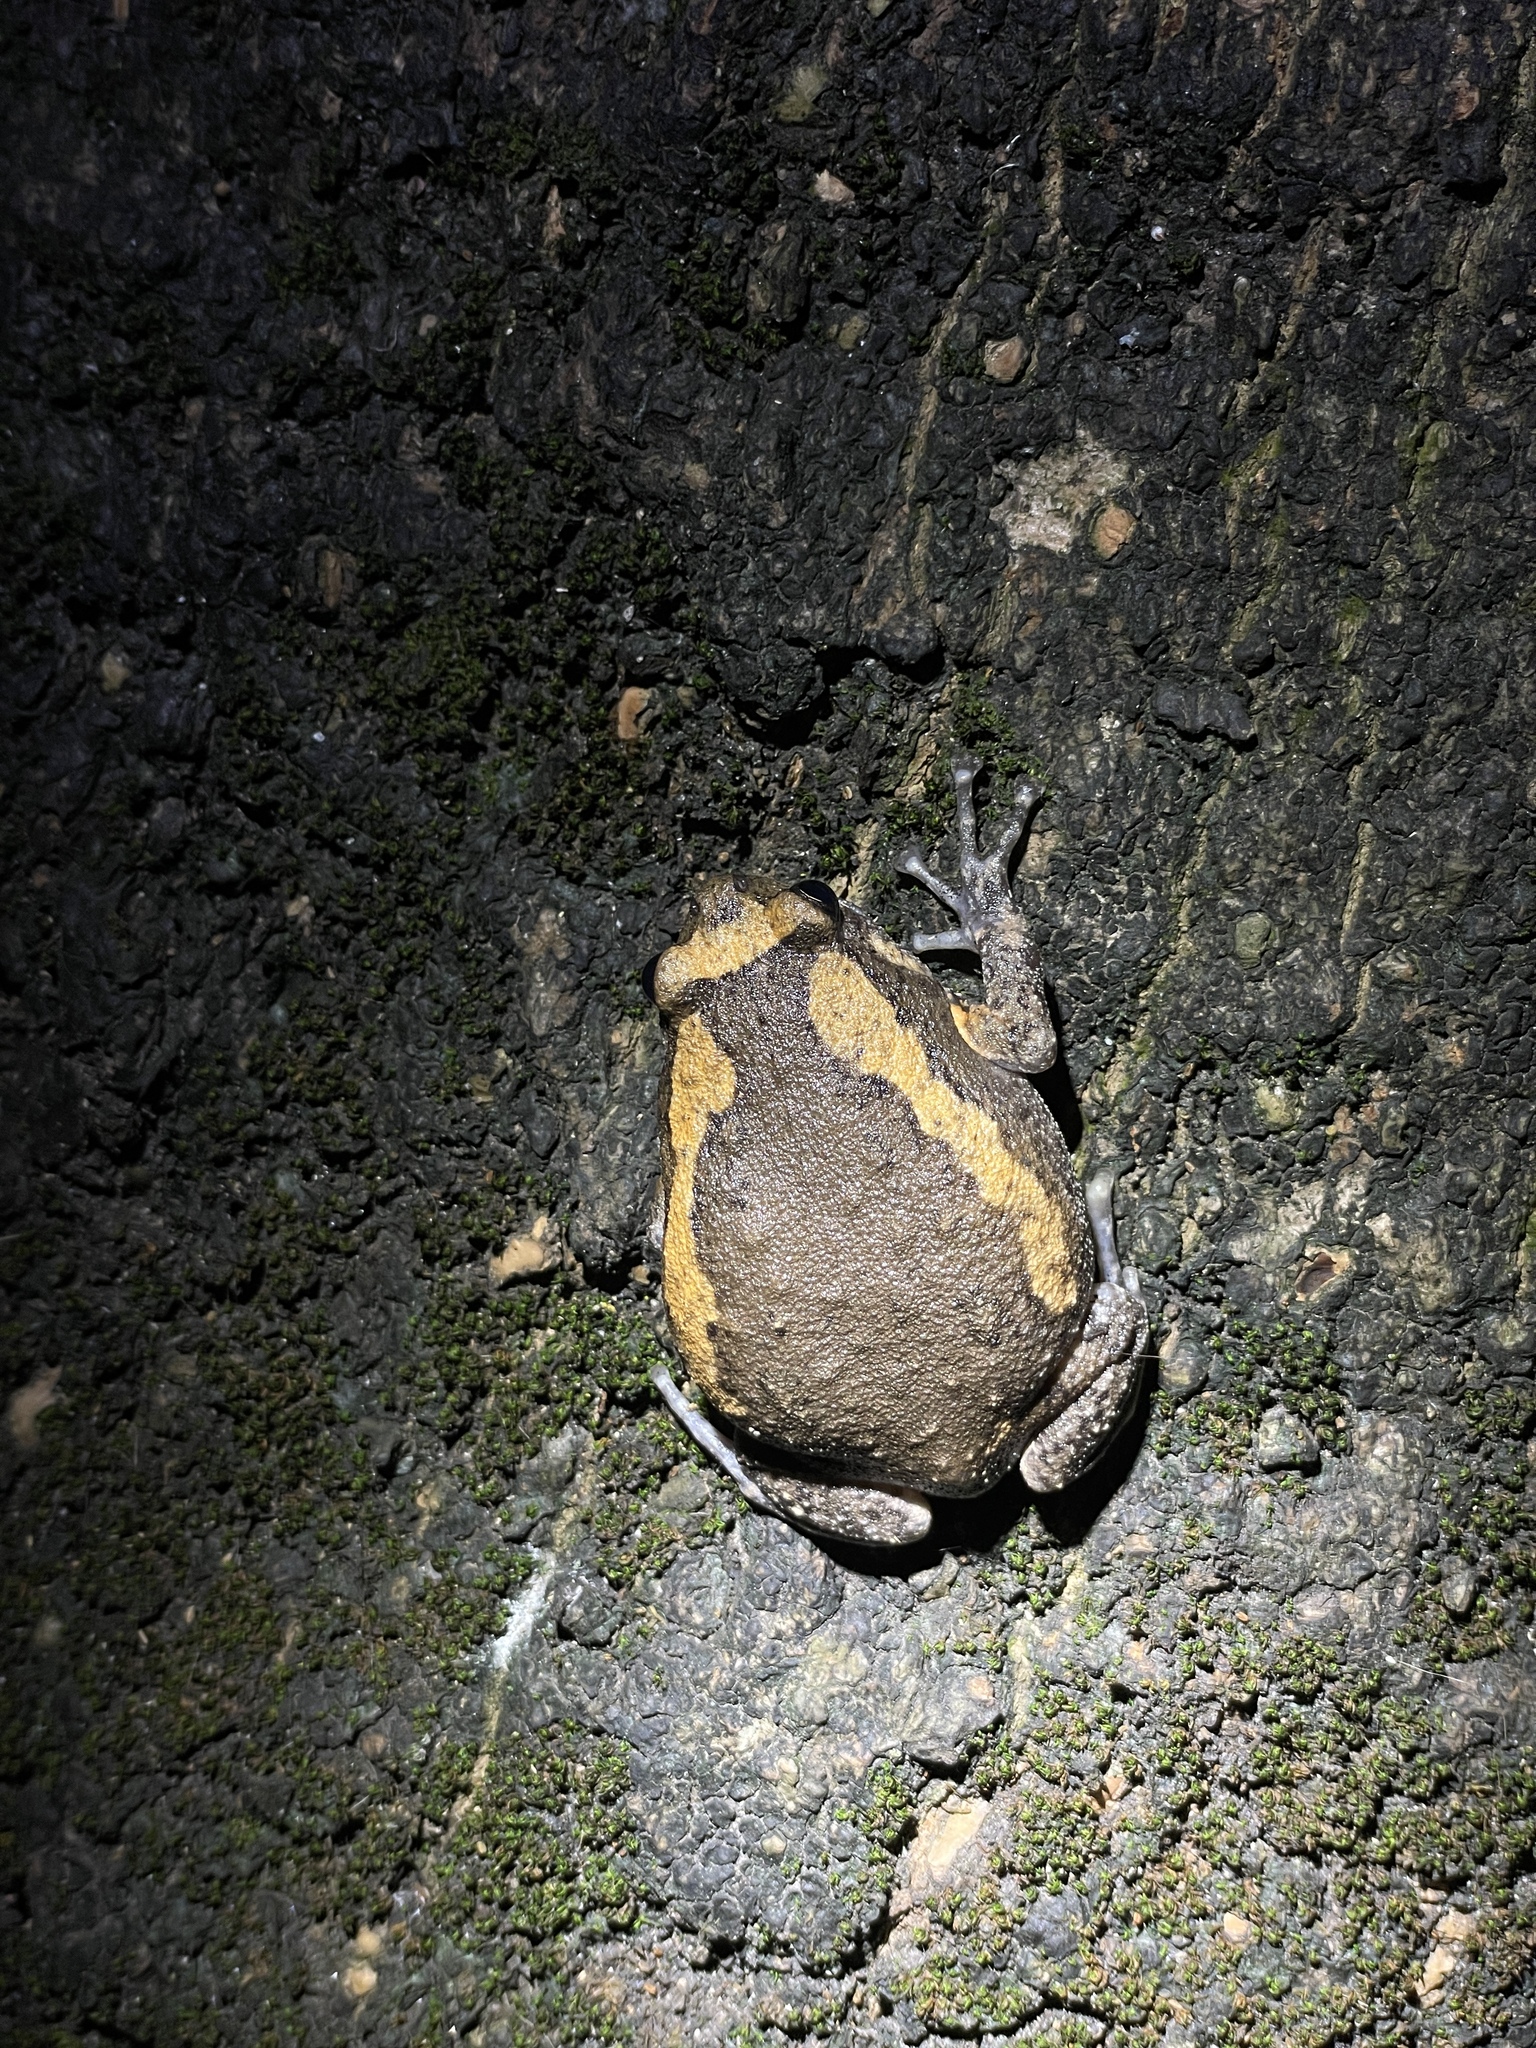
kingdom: Animalia
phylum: Chordata
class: Amphibia
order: Anura
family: Microhylidae
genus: Kaloula
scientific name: Kaloula pulchra
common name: Common,banded bullfrog
